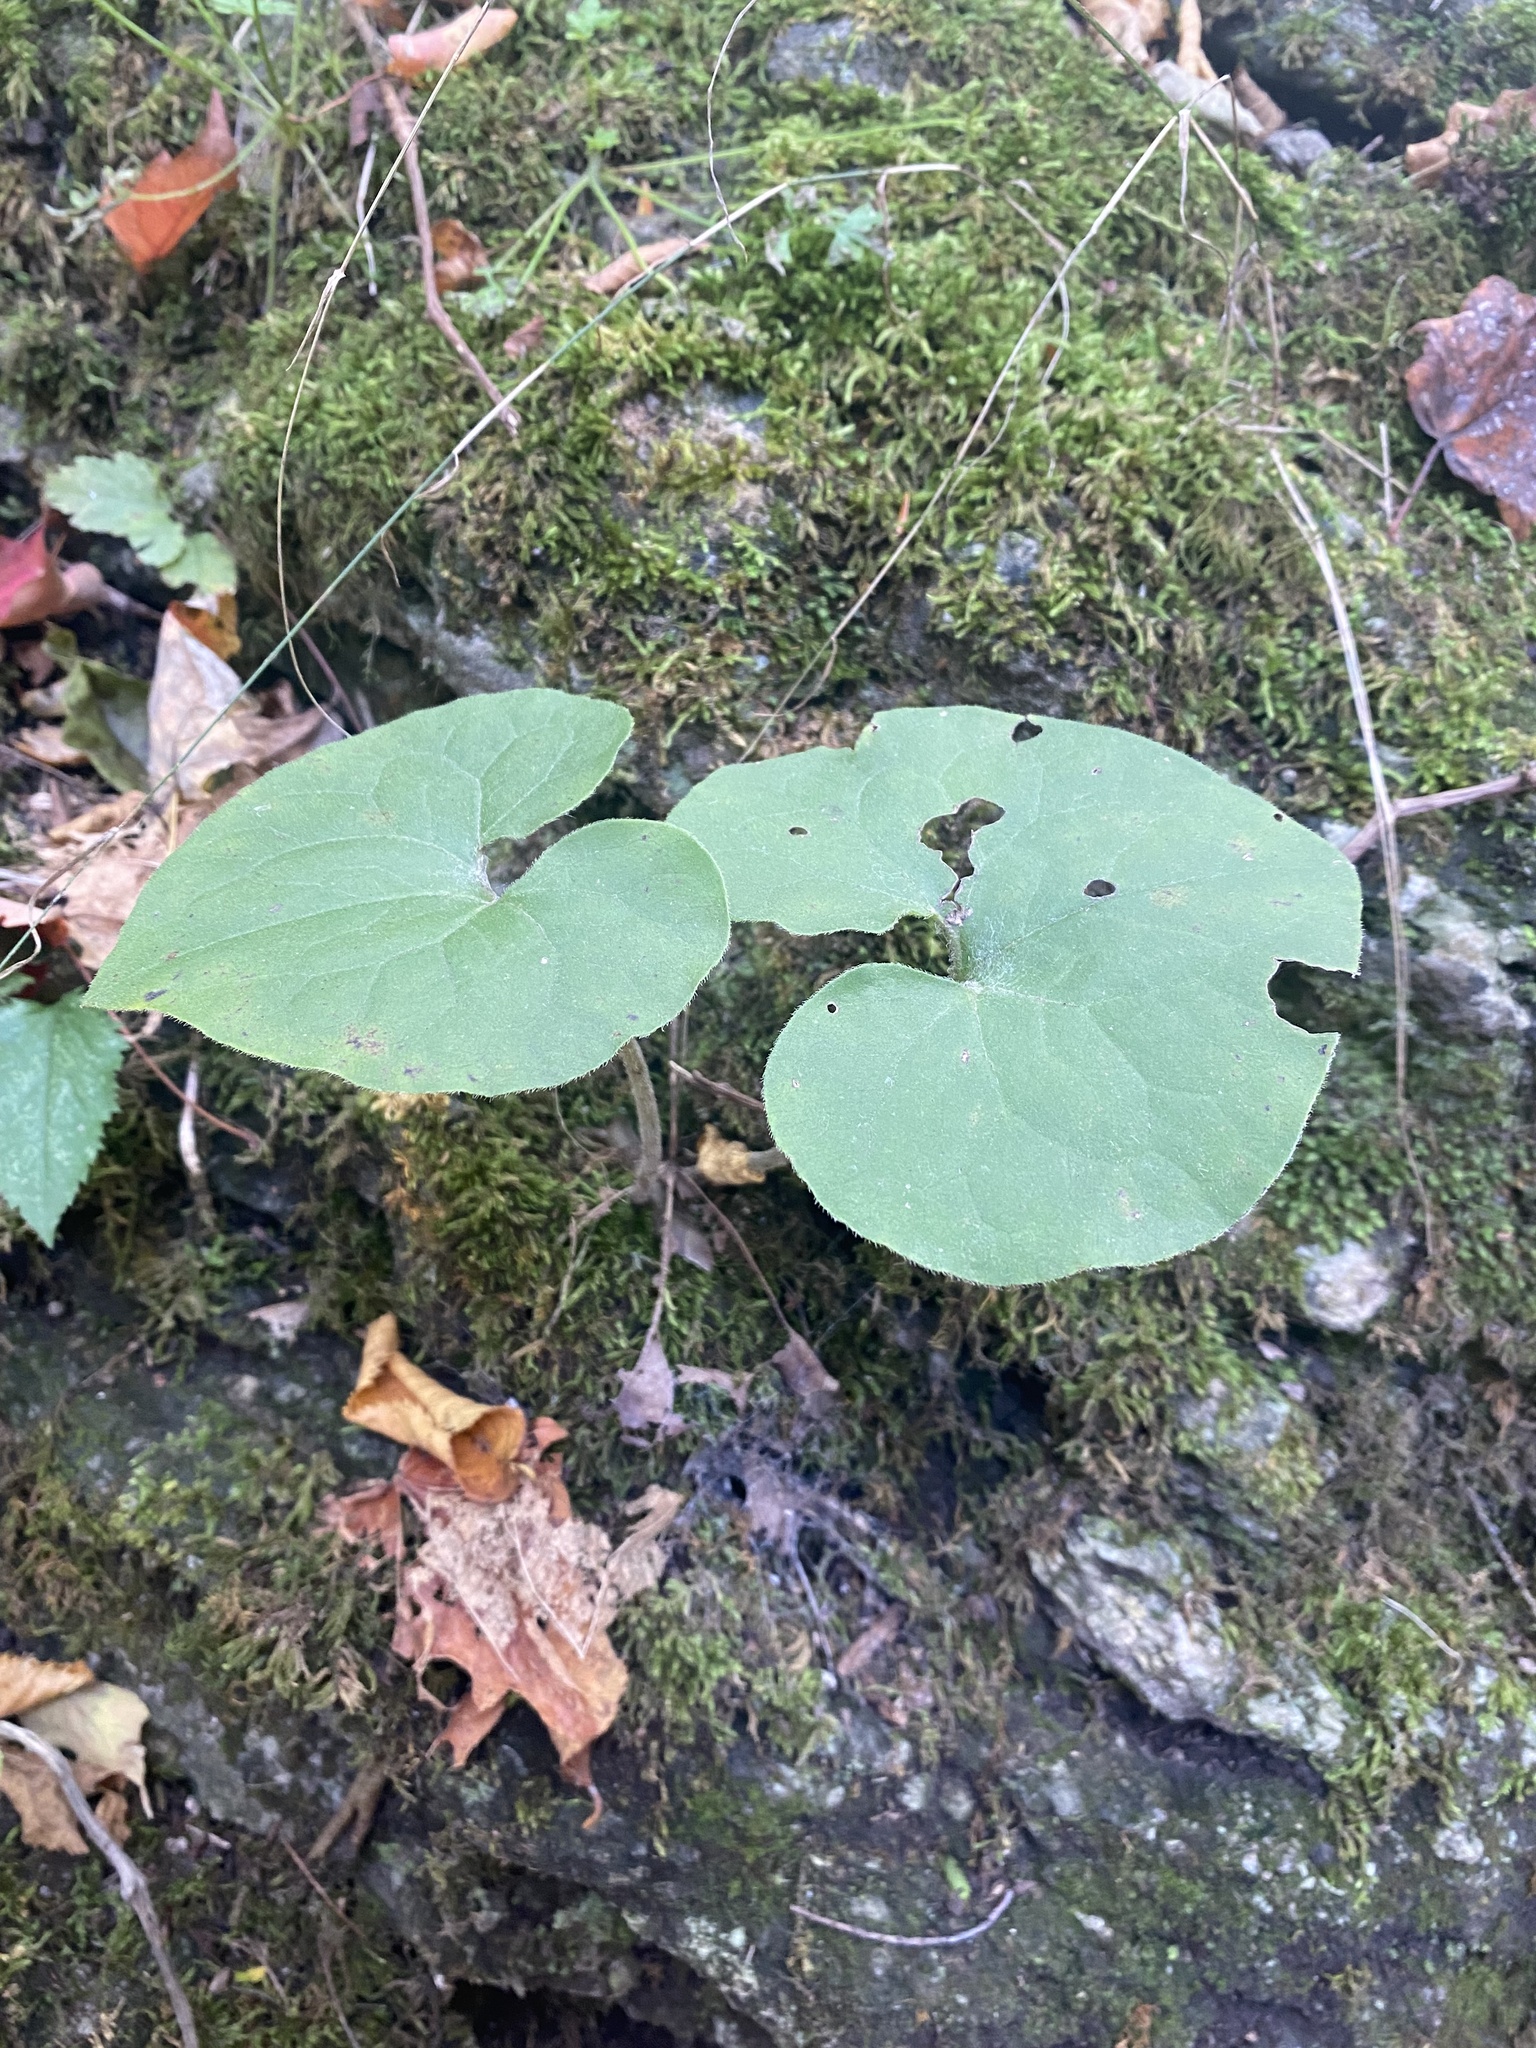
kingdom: Plantae
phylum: Tracheophyta
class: Magnoliopsida
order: Piperales
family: Aristolochiaceae
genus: Asarum
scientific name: Asarum canadense
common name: Wild ginger
